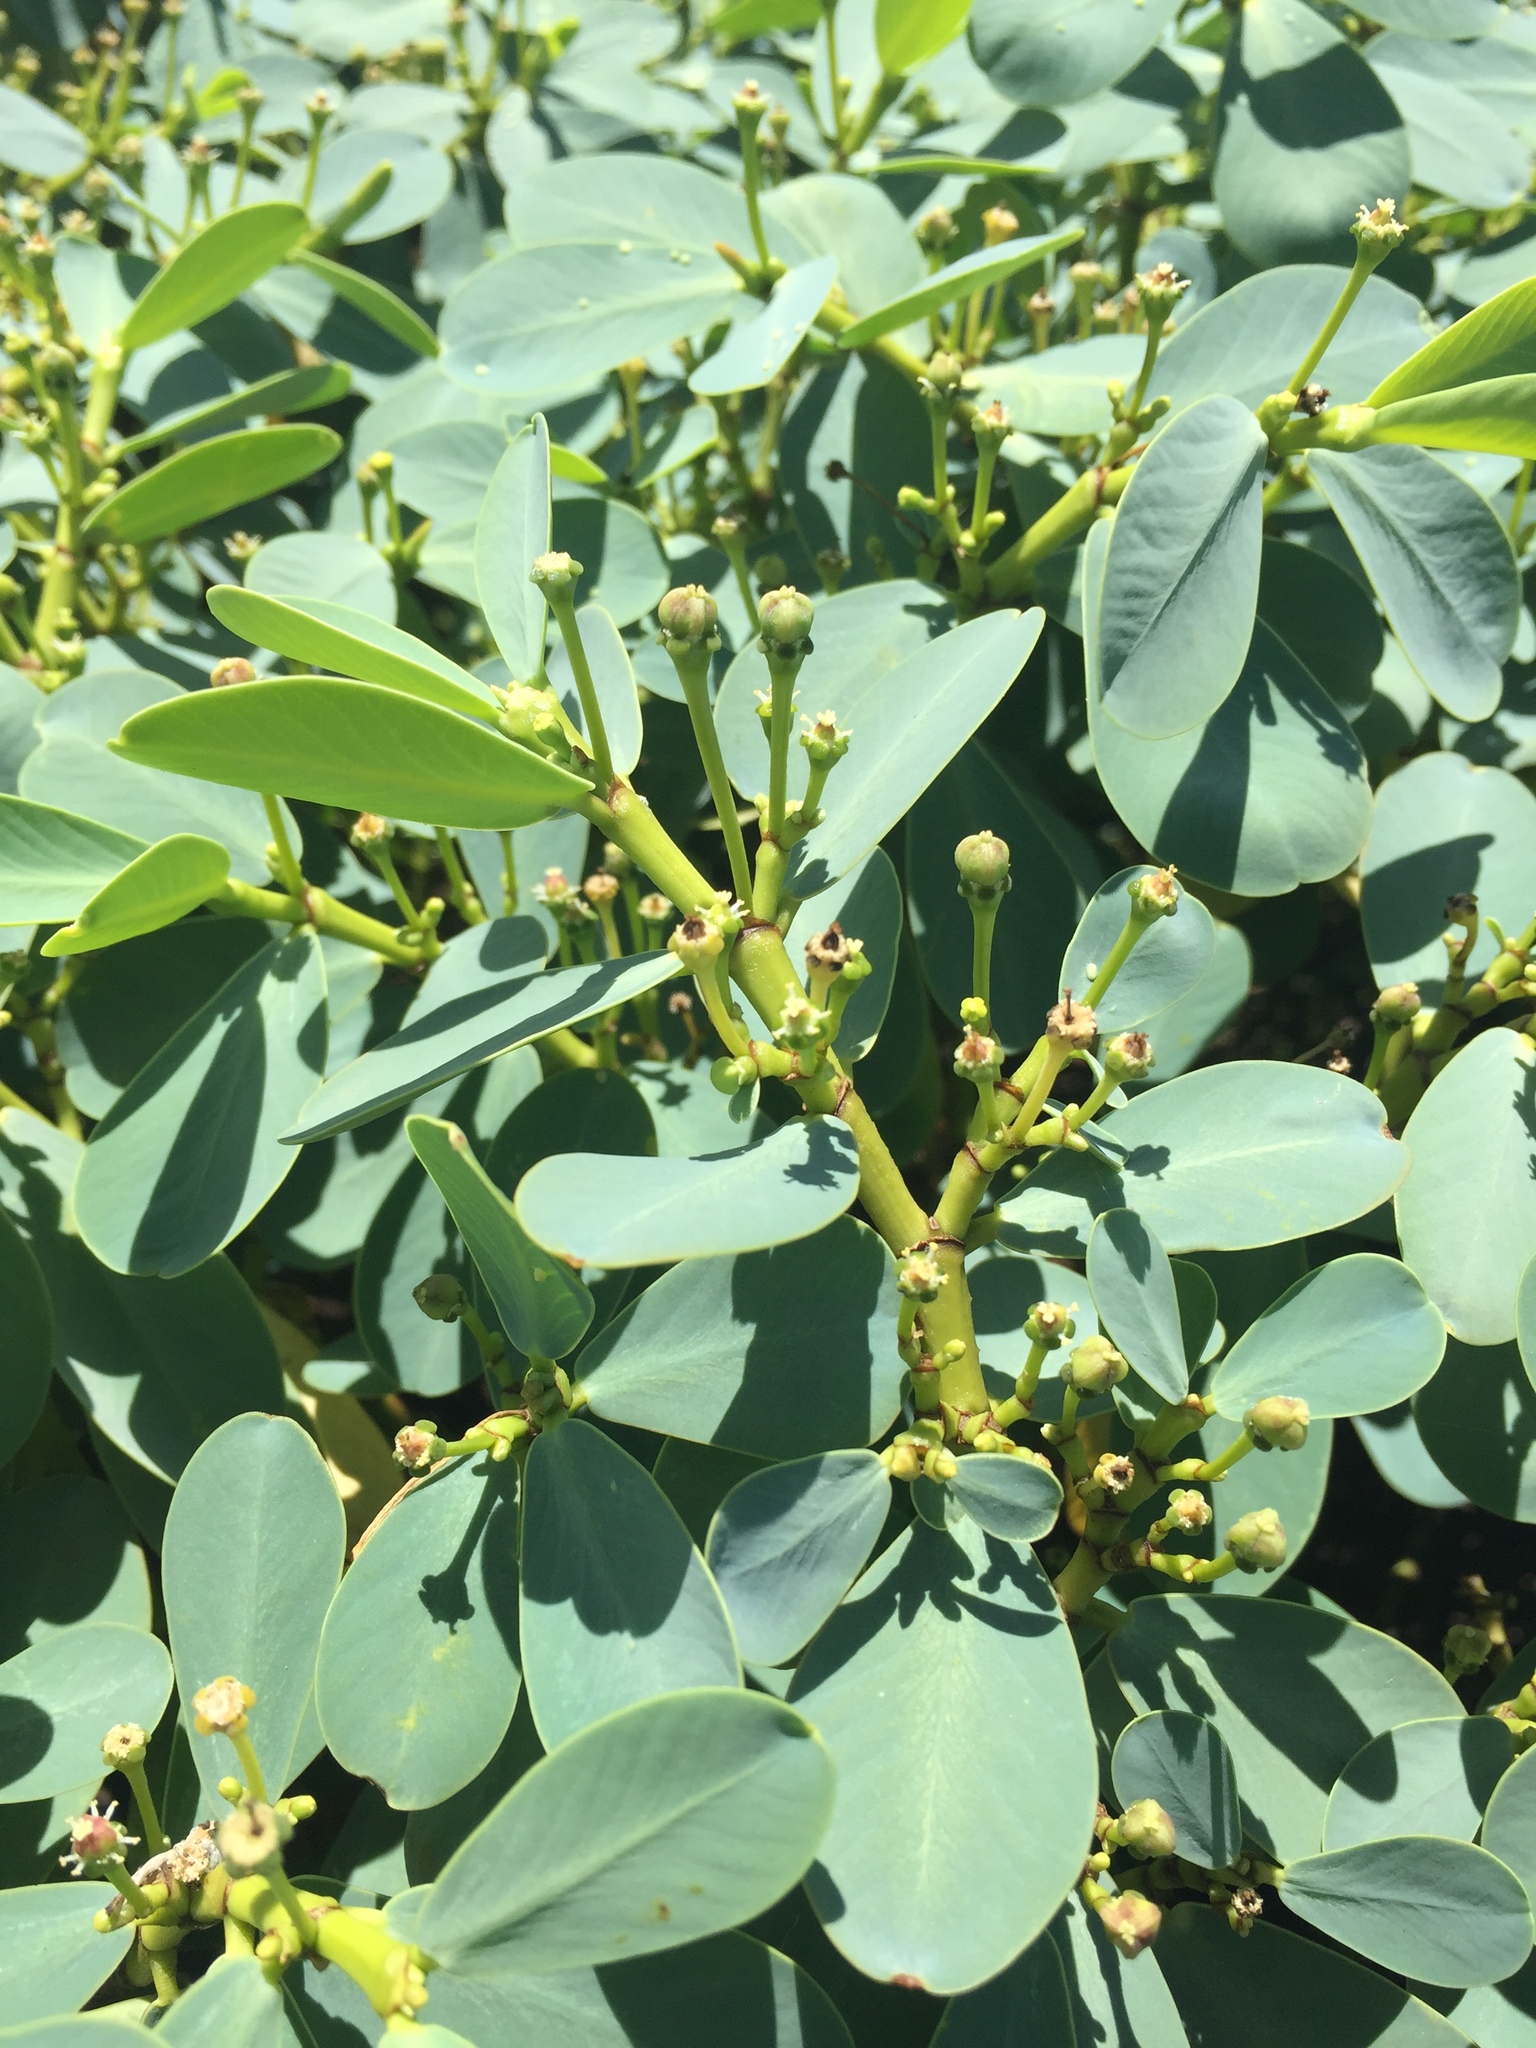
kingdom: Plantae
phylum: Tracheophyta
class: Magnoliopsida
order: Malpighiales
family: Euphorbiaceae
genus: Euphorbia
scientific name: Euphorbia celastroides
